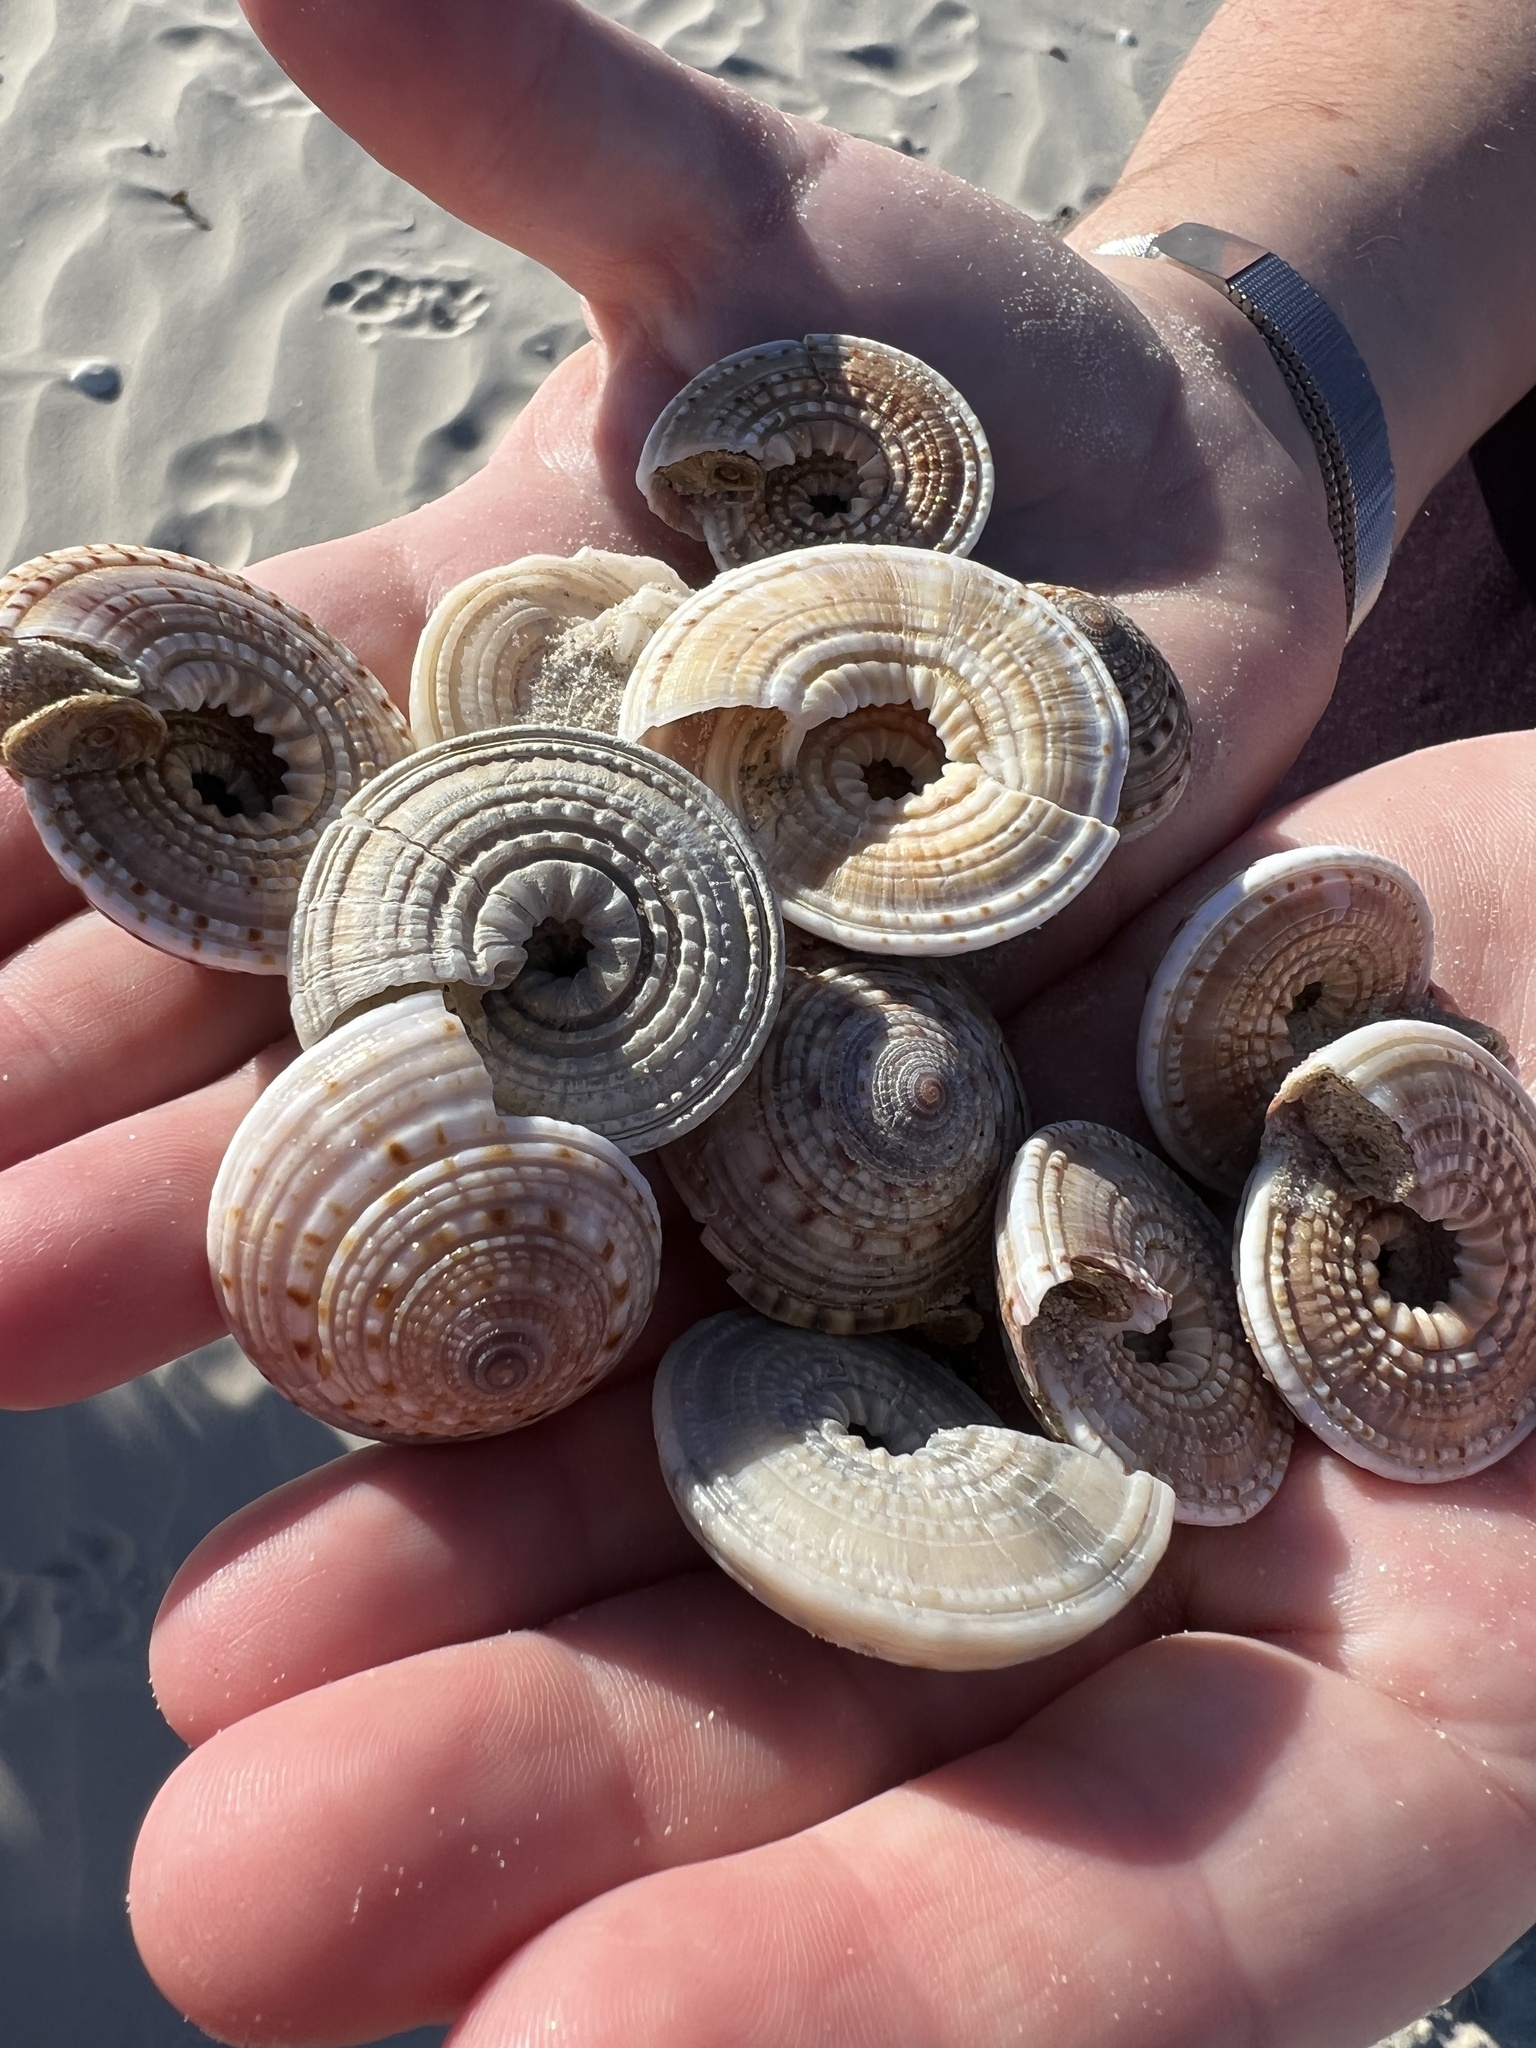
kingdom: Animalia
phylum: Mollusca
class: Gastropoda
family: Architectonicidae
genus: Architectonica
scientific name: Architectonica nobilis
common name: Common sundial
